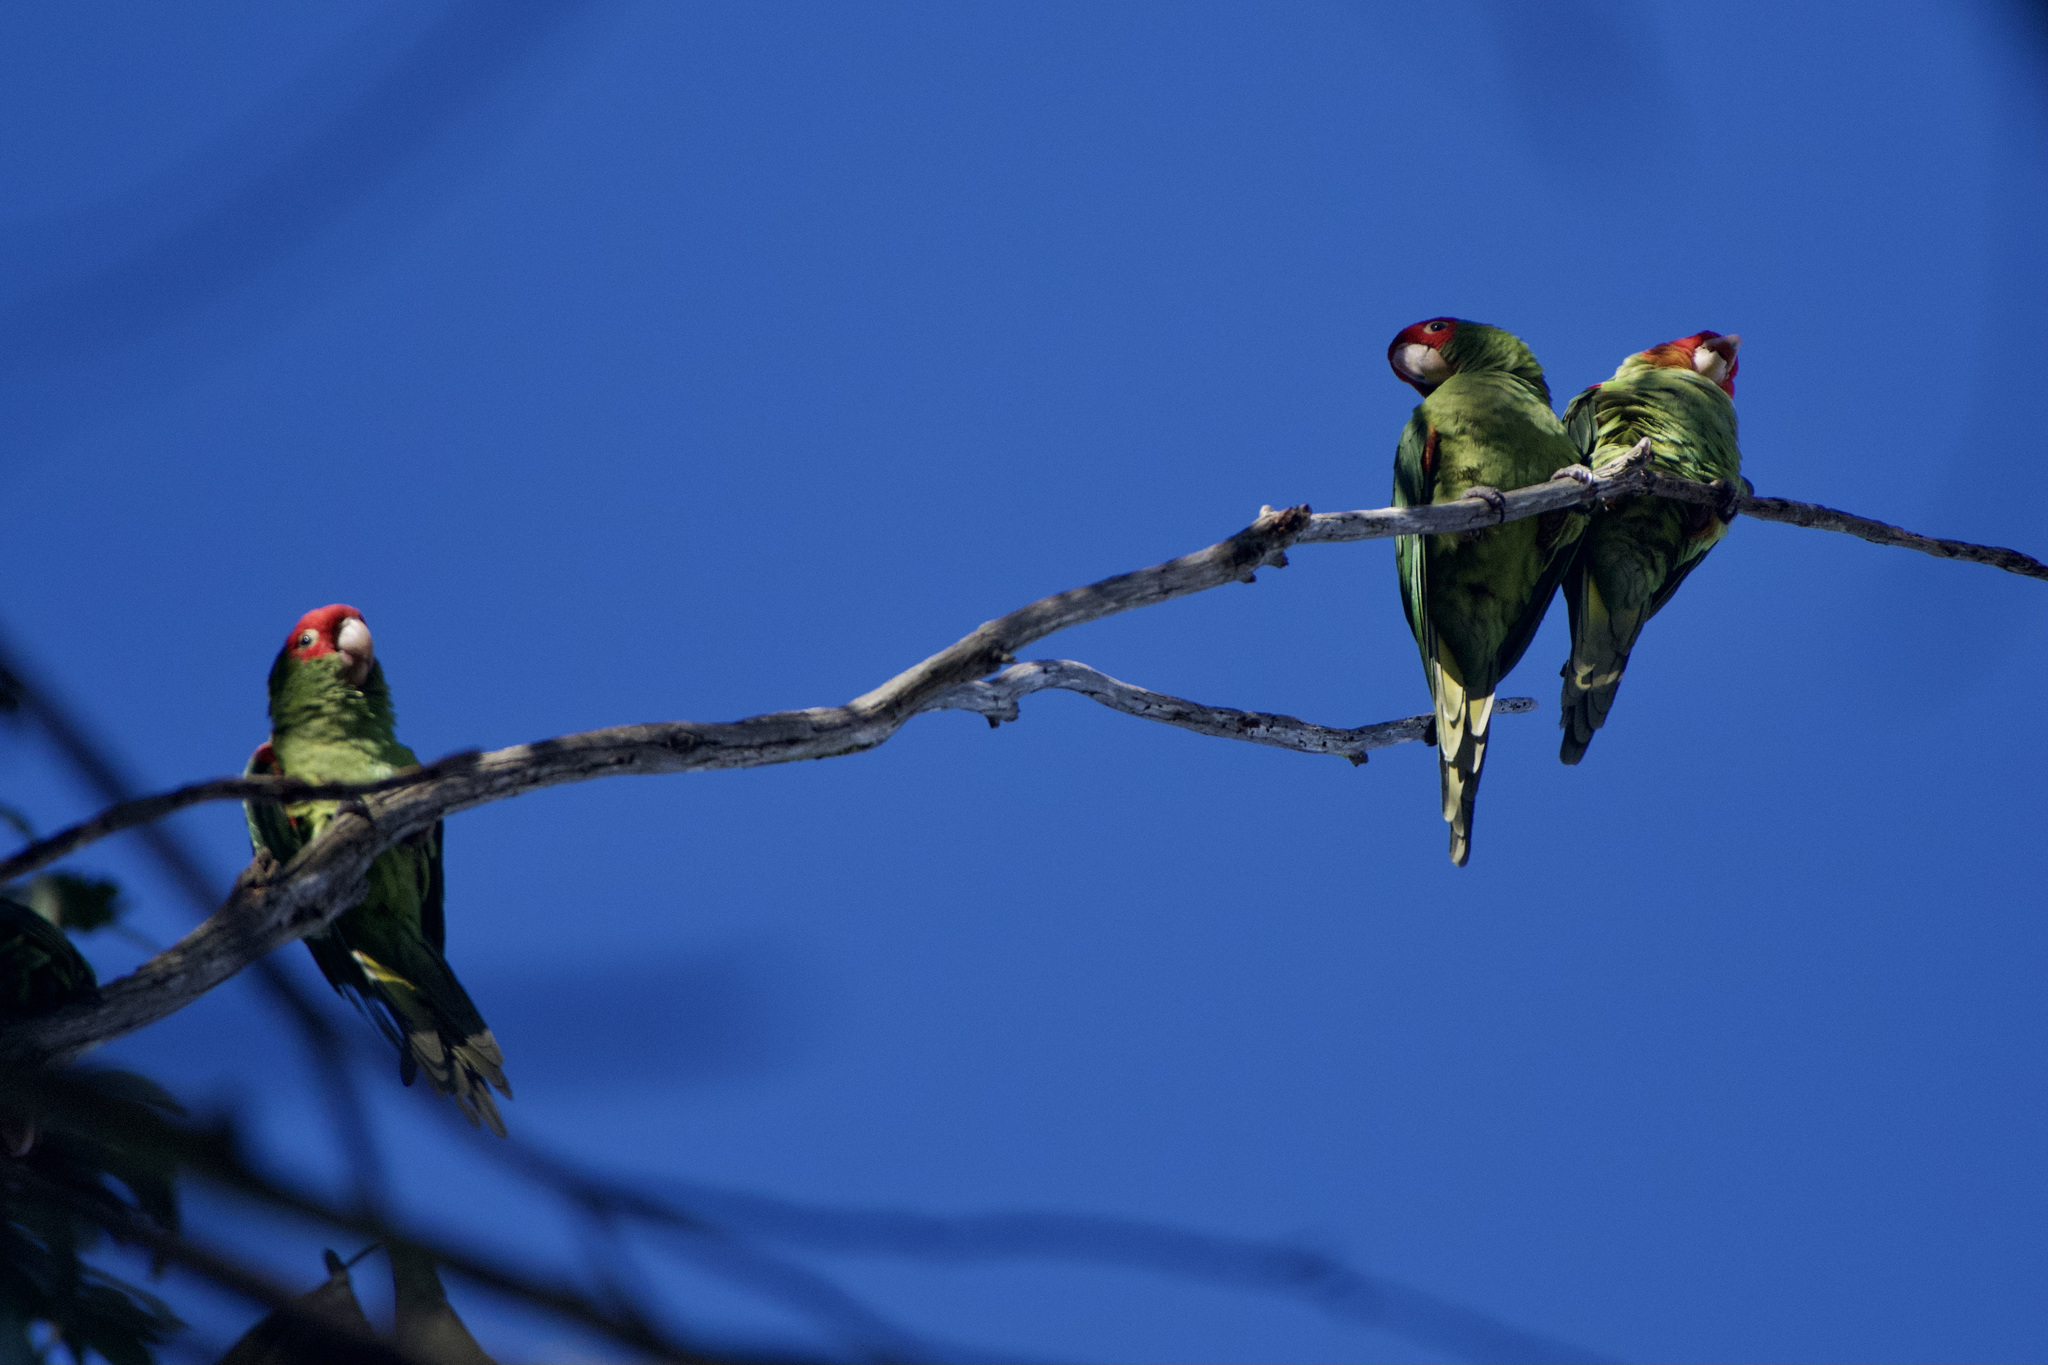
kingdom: Animalia
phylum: Chordata
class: Aves
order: Psittaciformes
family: Psittacidae
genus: Aratinga
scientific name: Aratinga erythrogenys
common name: Red-masked parakeet
